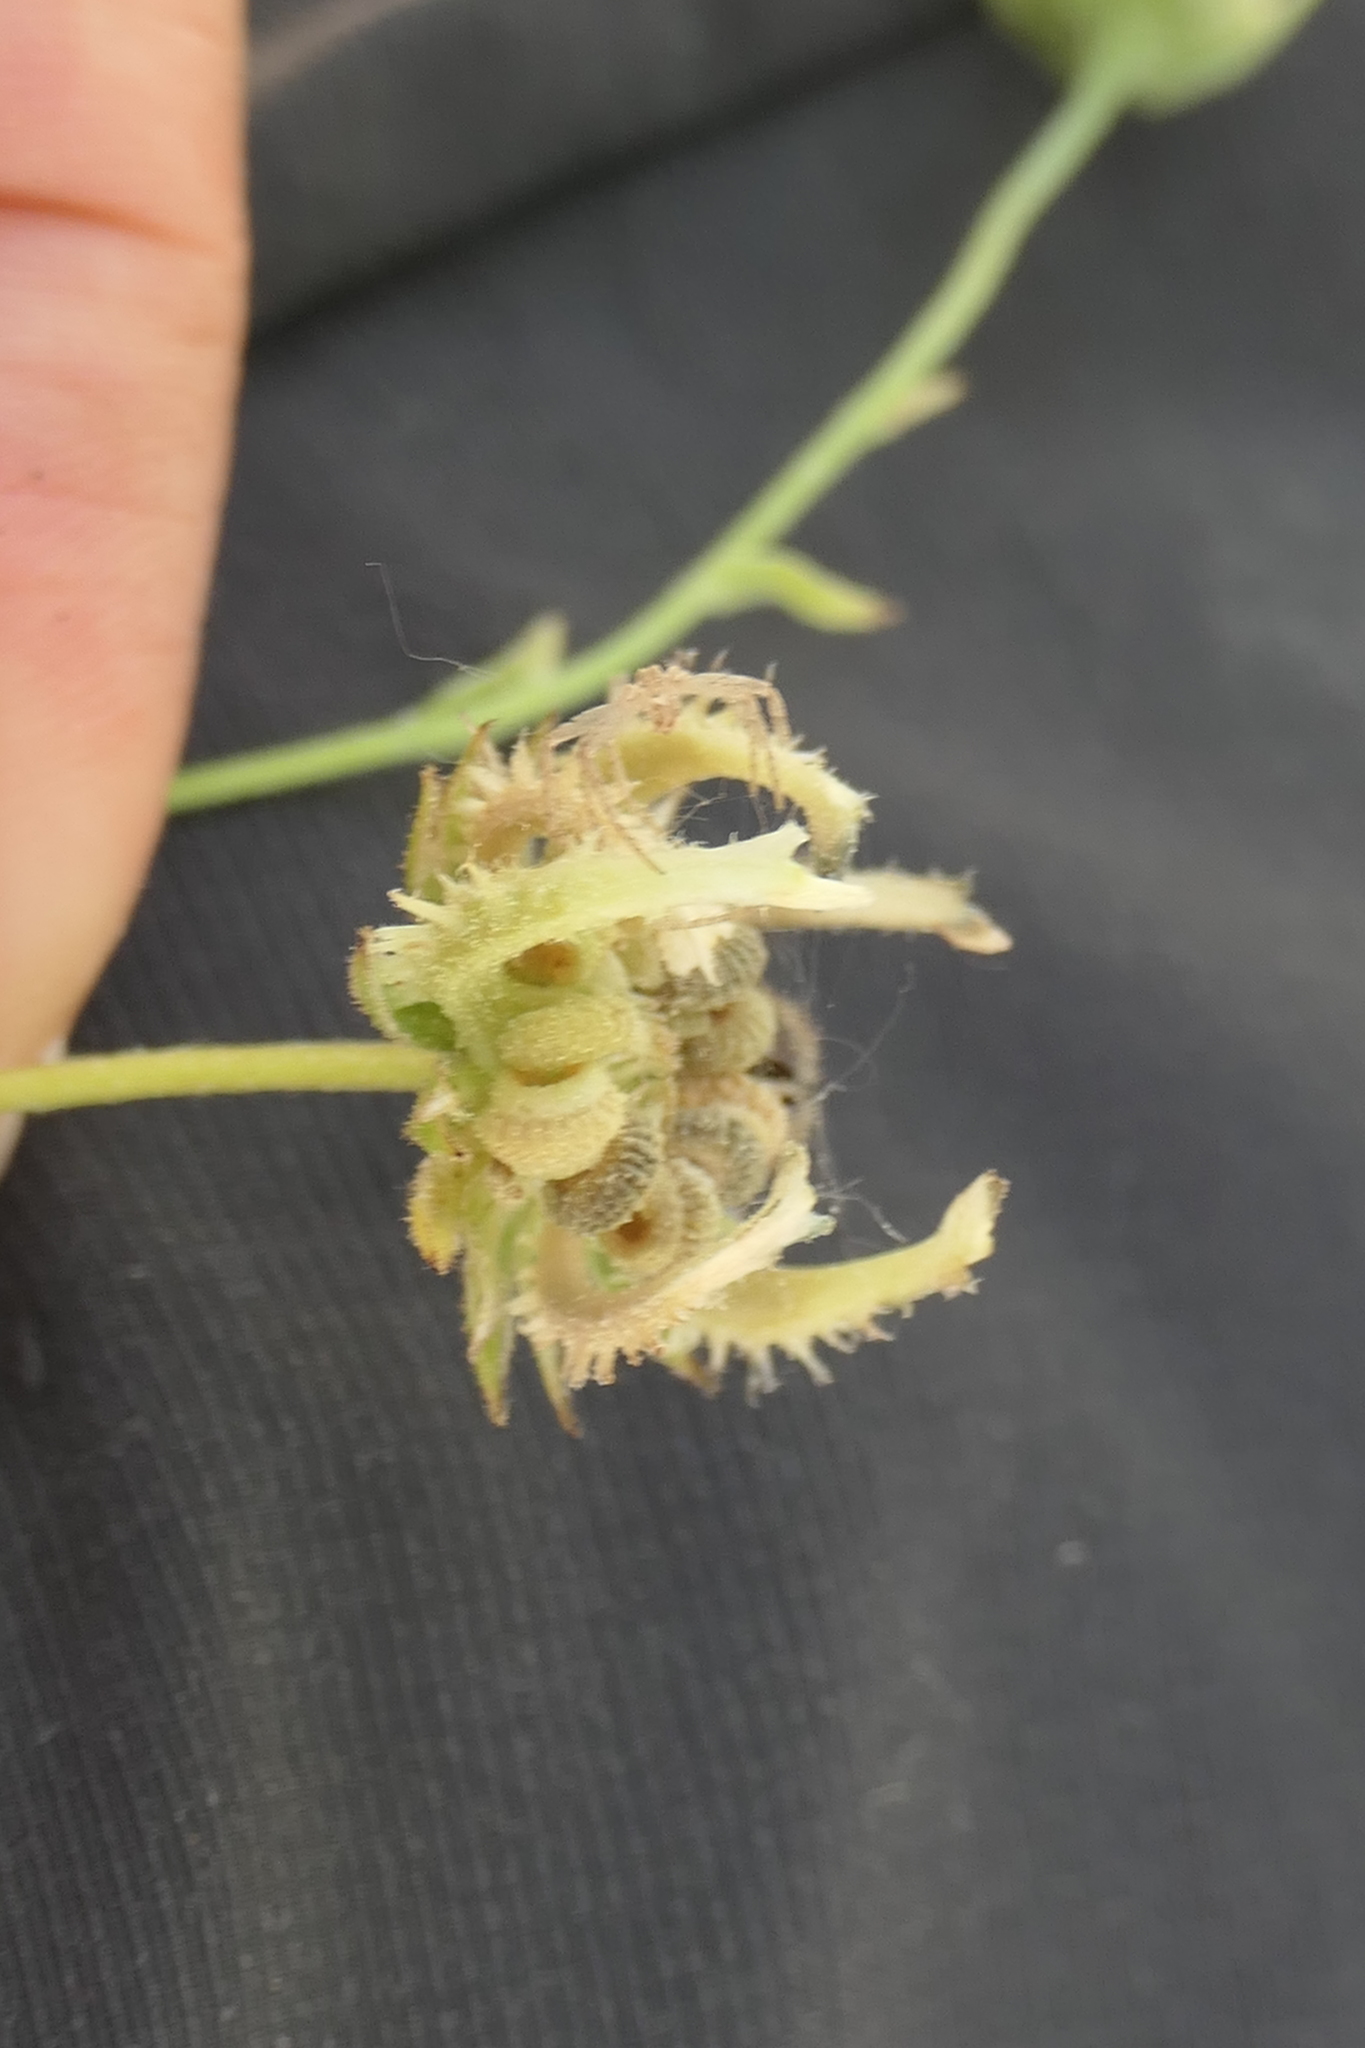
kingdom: Plantae
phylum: Tracheophyta
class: Magnoliopsida
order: Asterales
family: Asteraceae
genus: Calendula
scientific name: Calendula arvensis
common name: Field marigold
